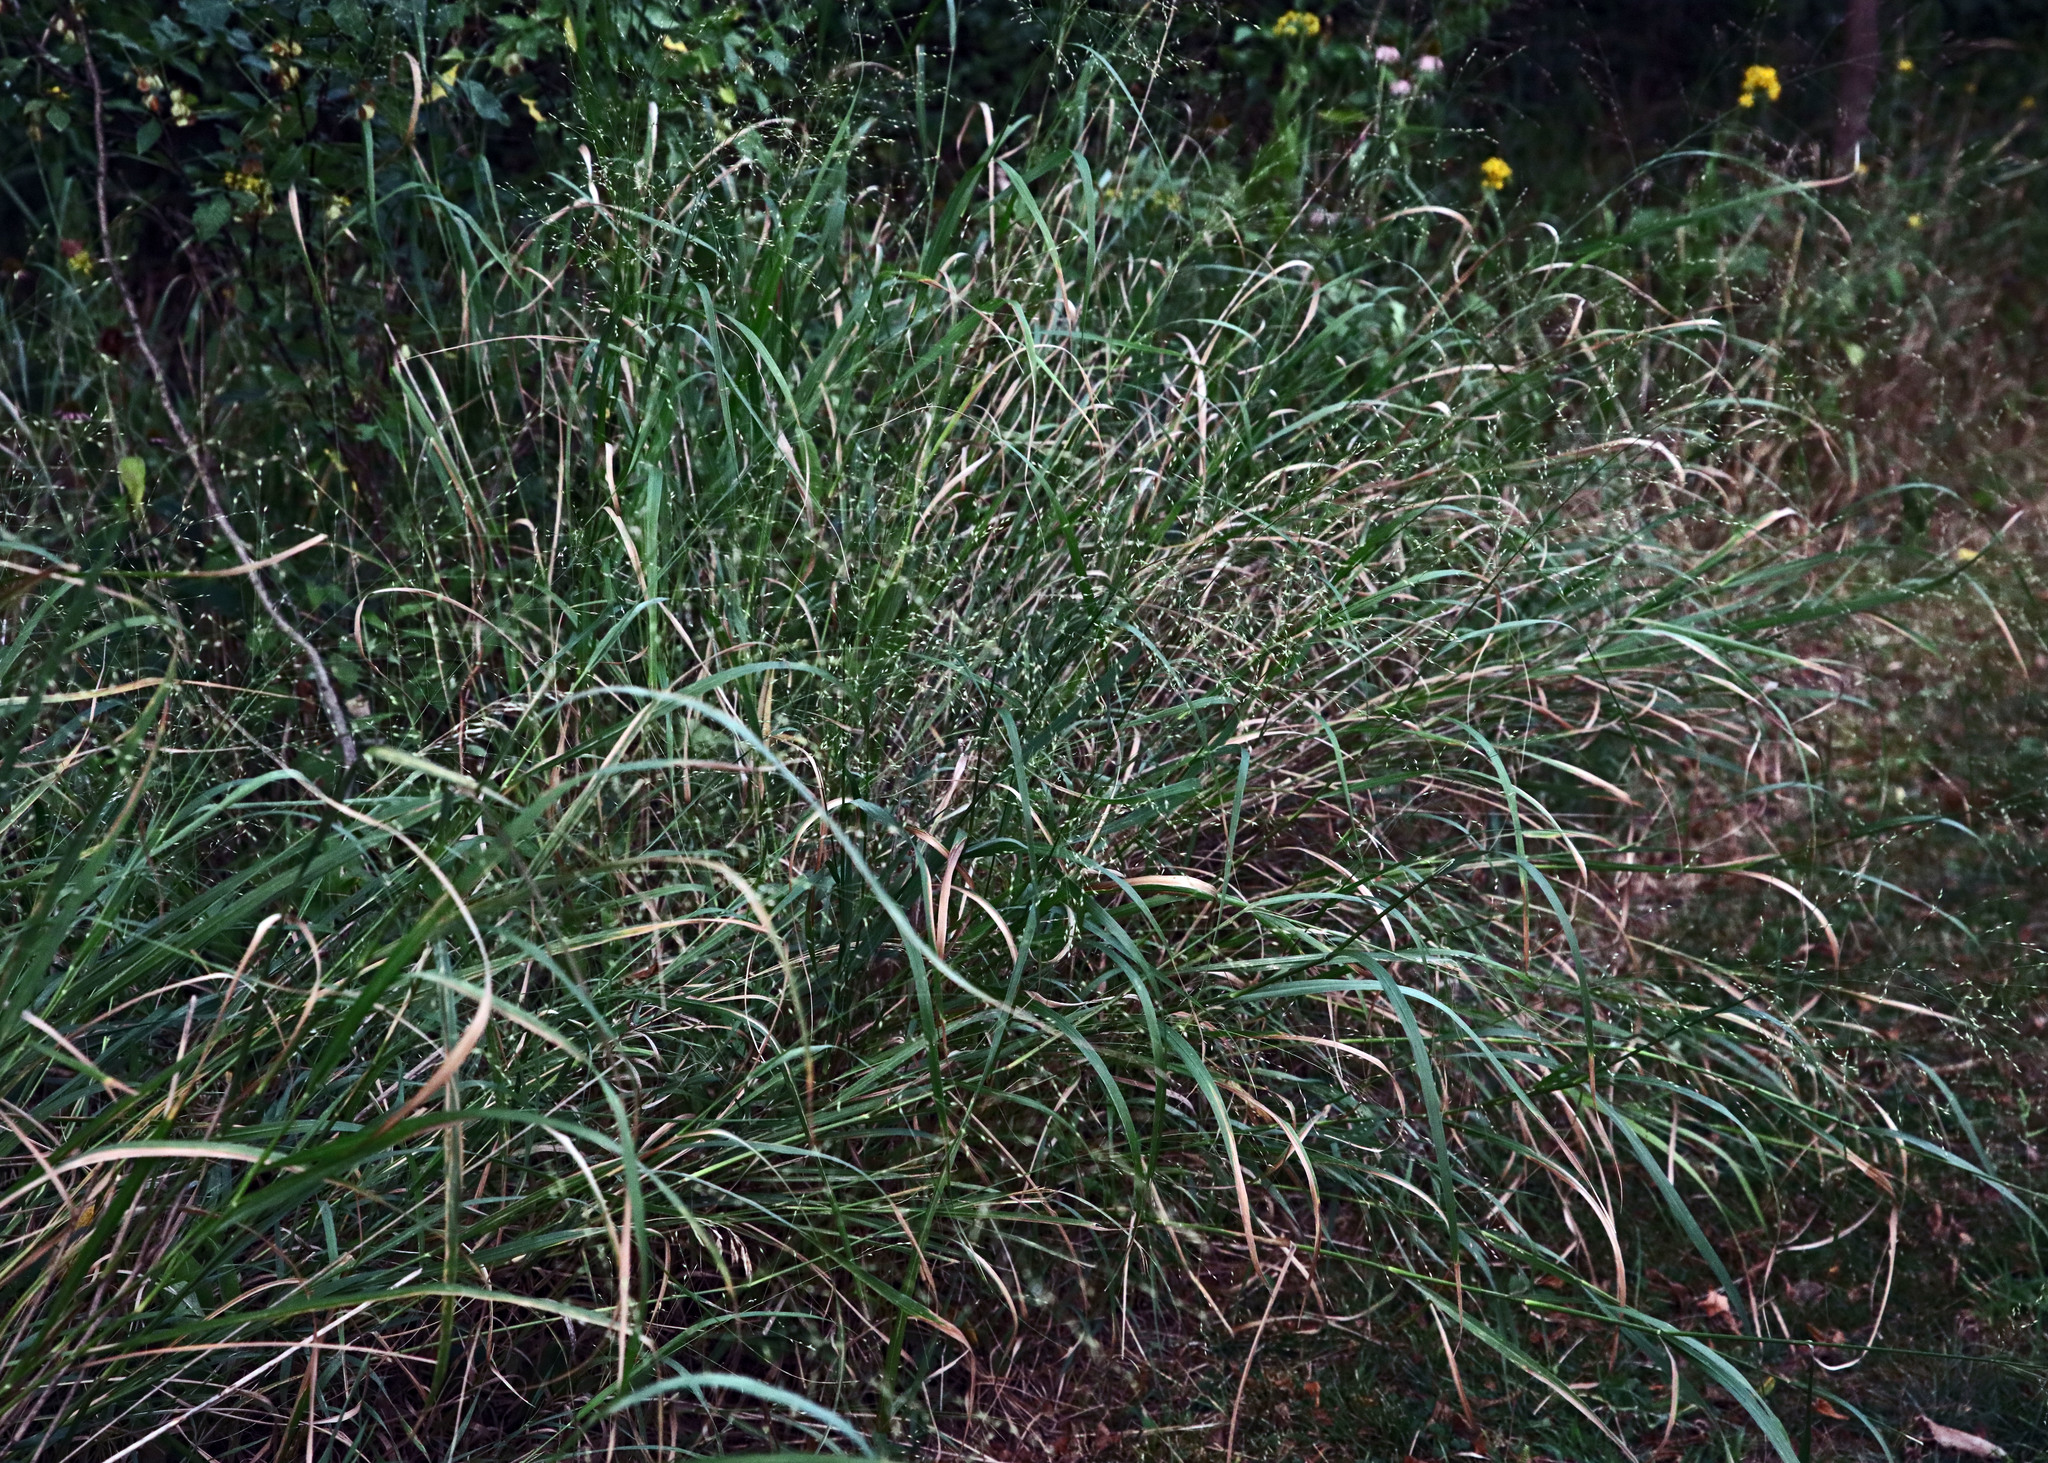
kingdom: Plantae
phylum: Tracheophyta
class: Liliopsida
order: Poales
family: Poaceae
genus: Panicum
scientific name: Panicum virgatum
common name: Switchgrass
